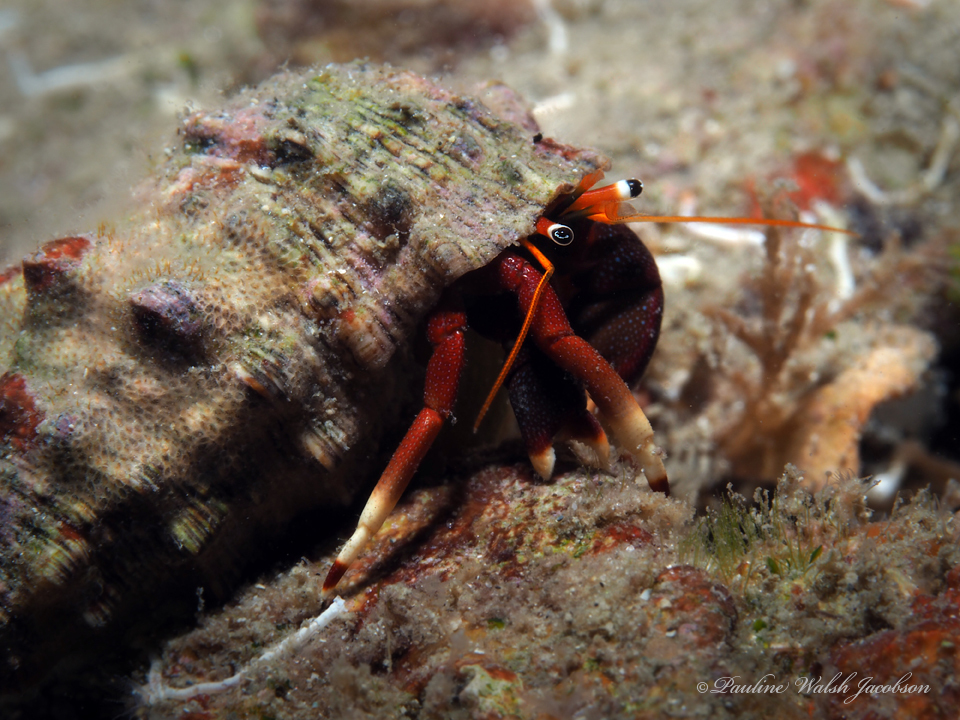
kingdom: Animalia
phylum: Arthropoda
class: Malacostraca
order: Decapoda
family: Diogenidae
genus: Calcinus
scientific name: Calcinus tibicen
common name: Orangeclaw hermit
